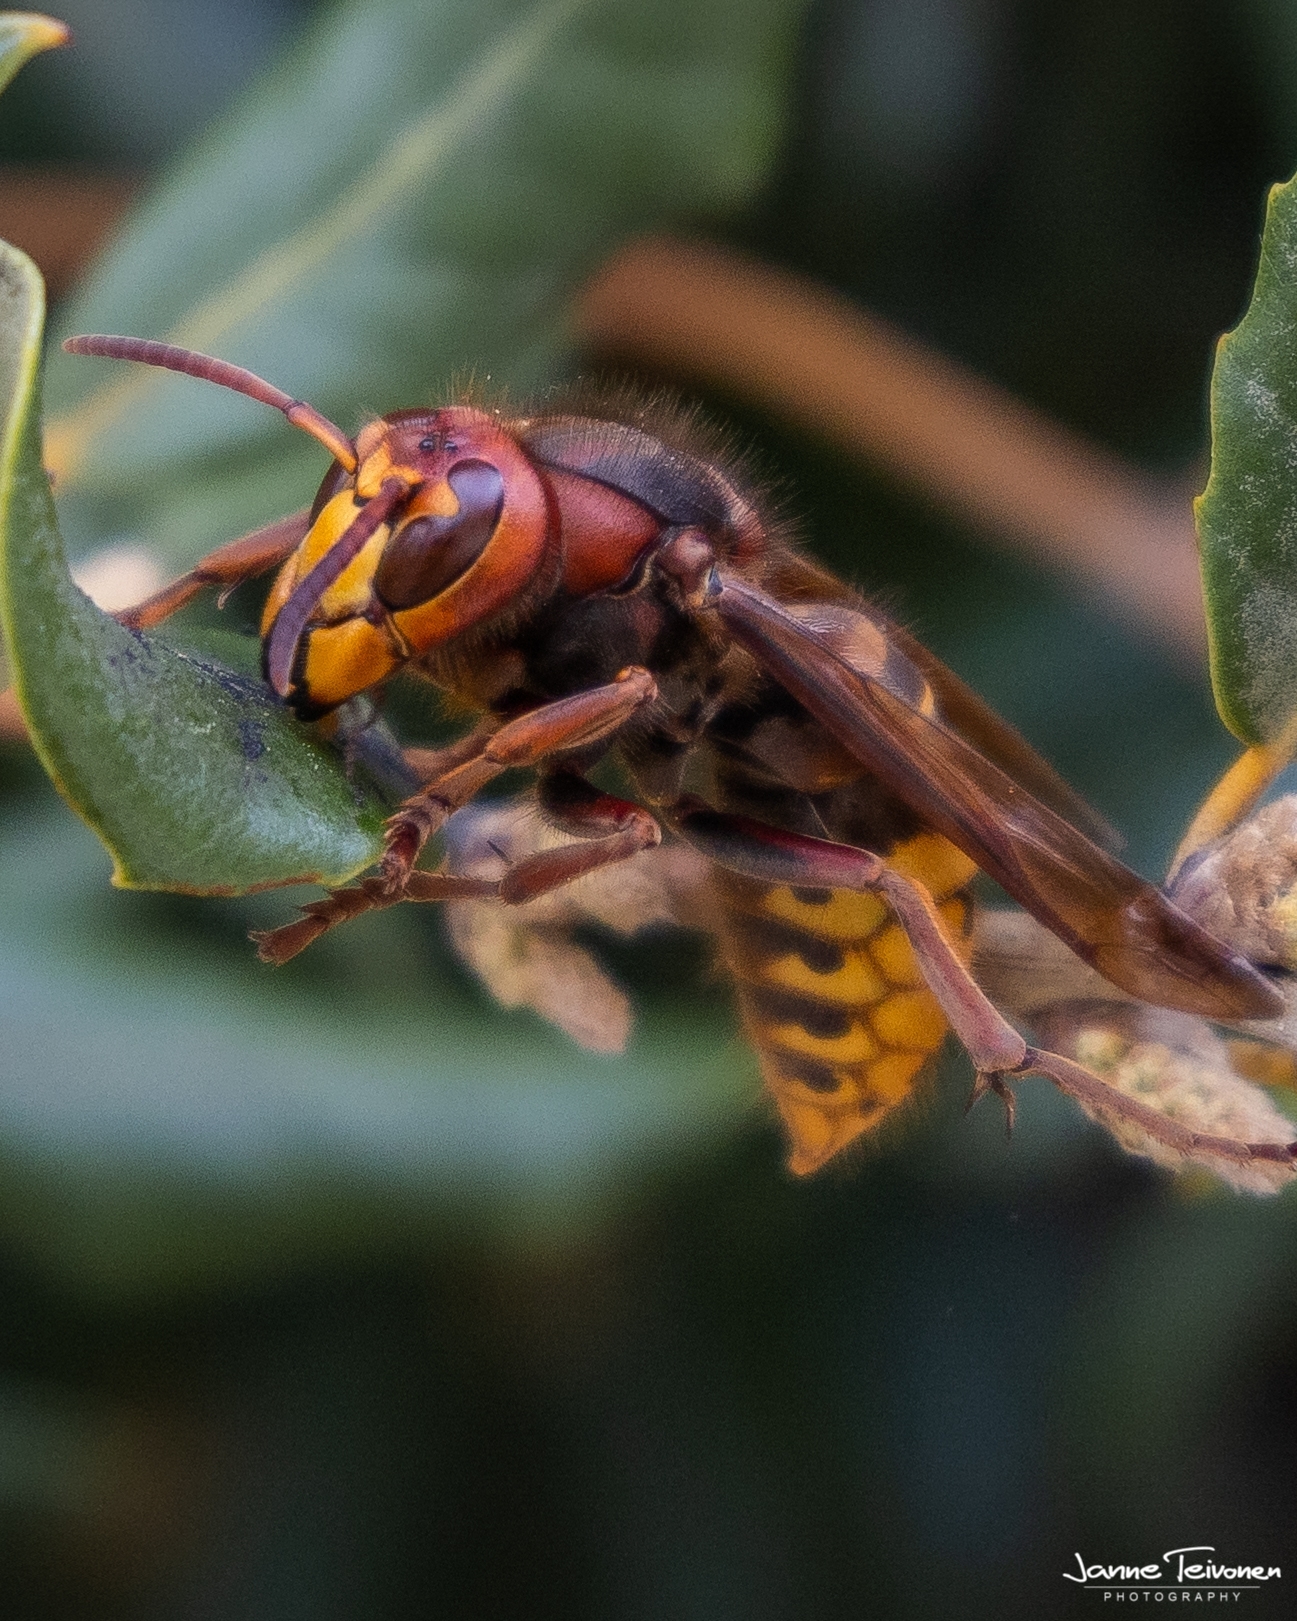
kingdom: Animalia
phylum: Arthropoda
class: Insecta
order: Hymenoptera
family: Vespidae
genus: Vespa
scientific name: Vespa crabro
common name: Hornet
